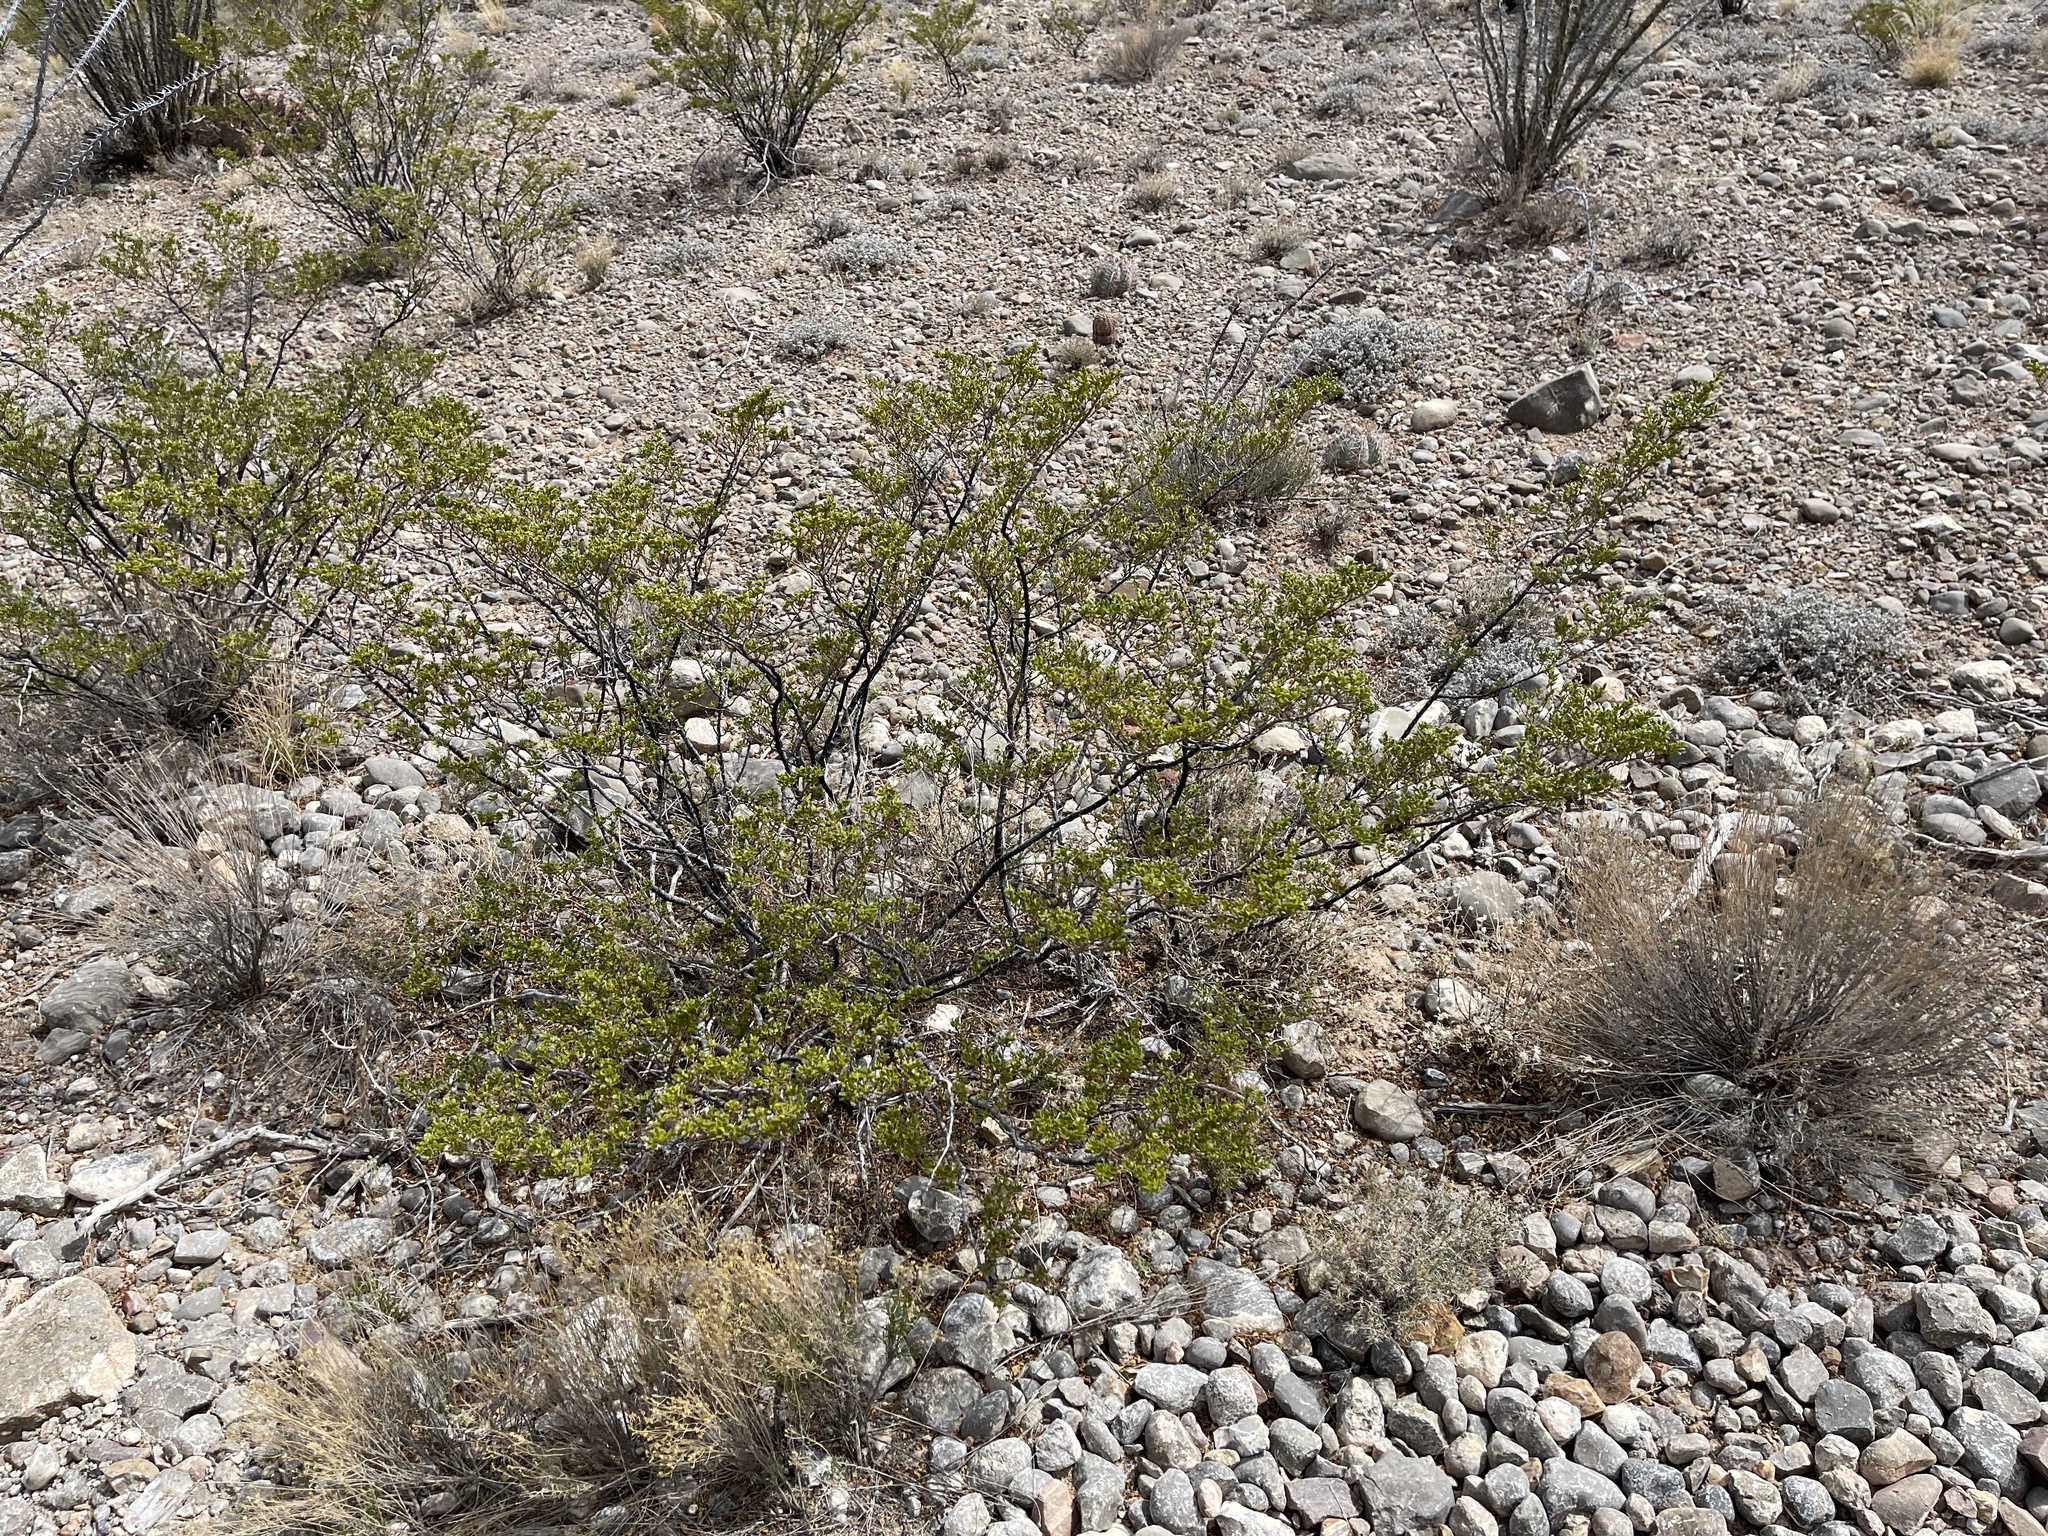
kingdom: Plantae
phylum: Tracheophyta
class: Magnoliopsida
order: Zygophyllales
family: Zygophyllaceae
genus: Larrea
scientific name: Larrea tridentata
